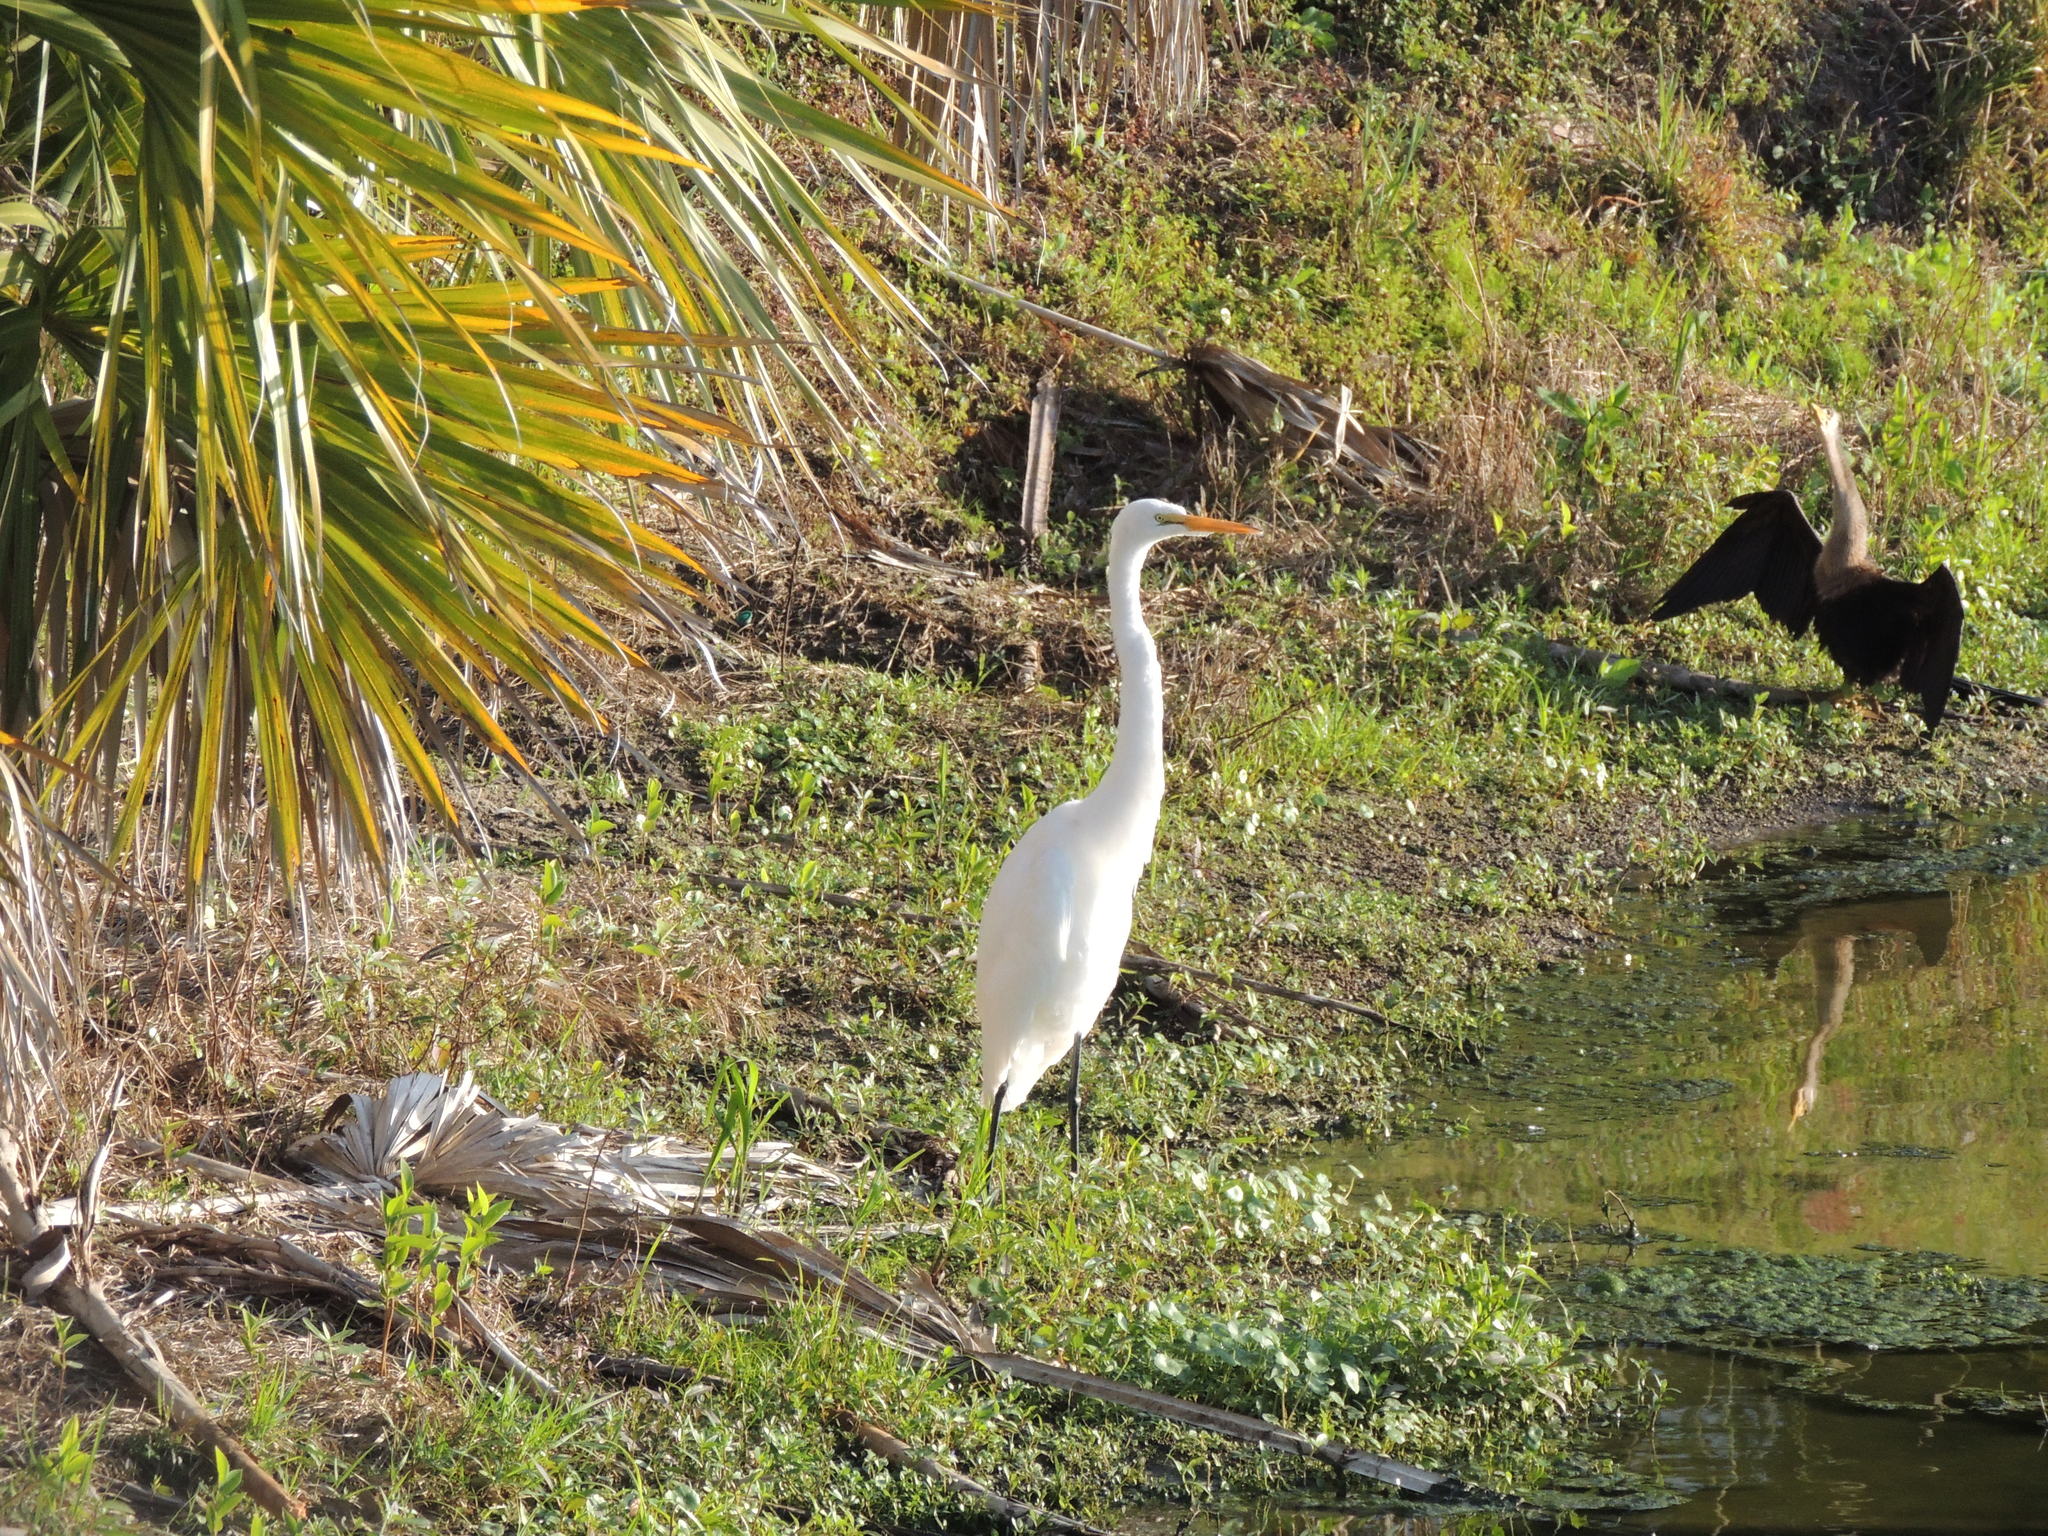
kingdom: Animalia
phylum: Chordata
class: Aves
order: Pelecaniformes
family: Ardeidae
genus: Ardea
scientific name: Ardea alba
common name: Great egret
